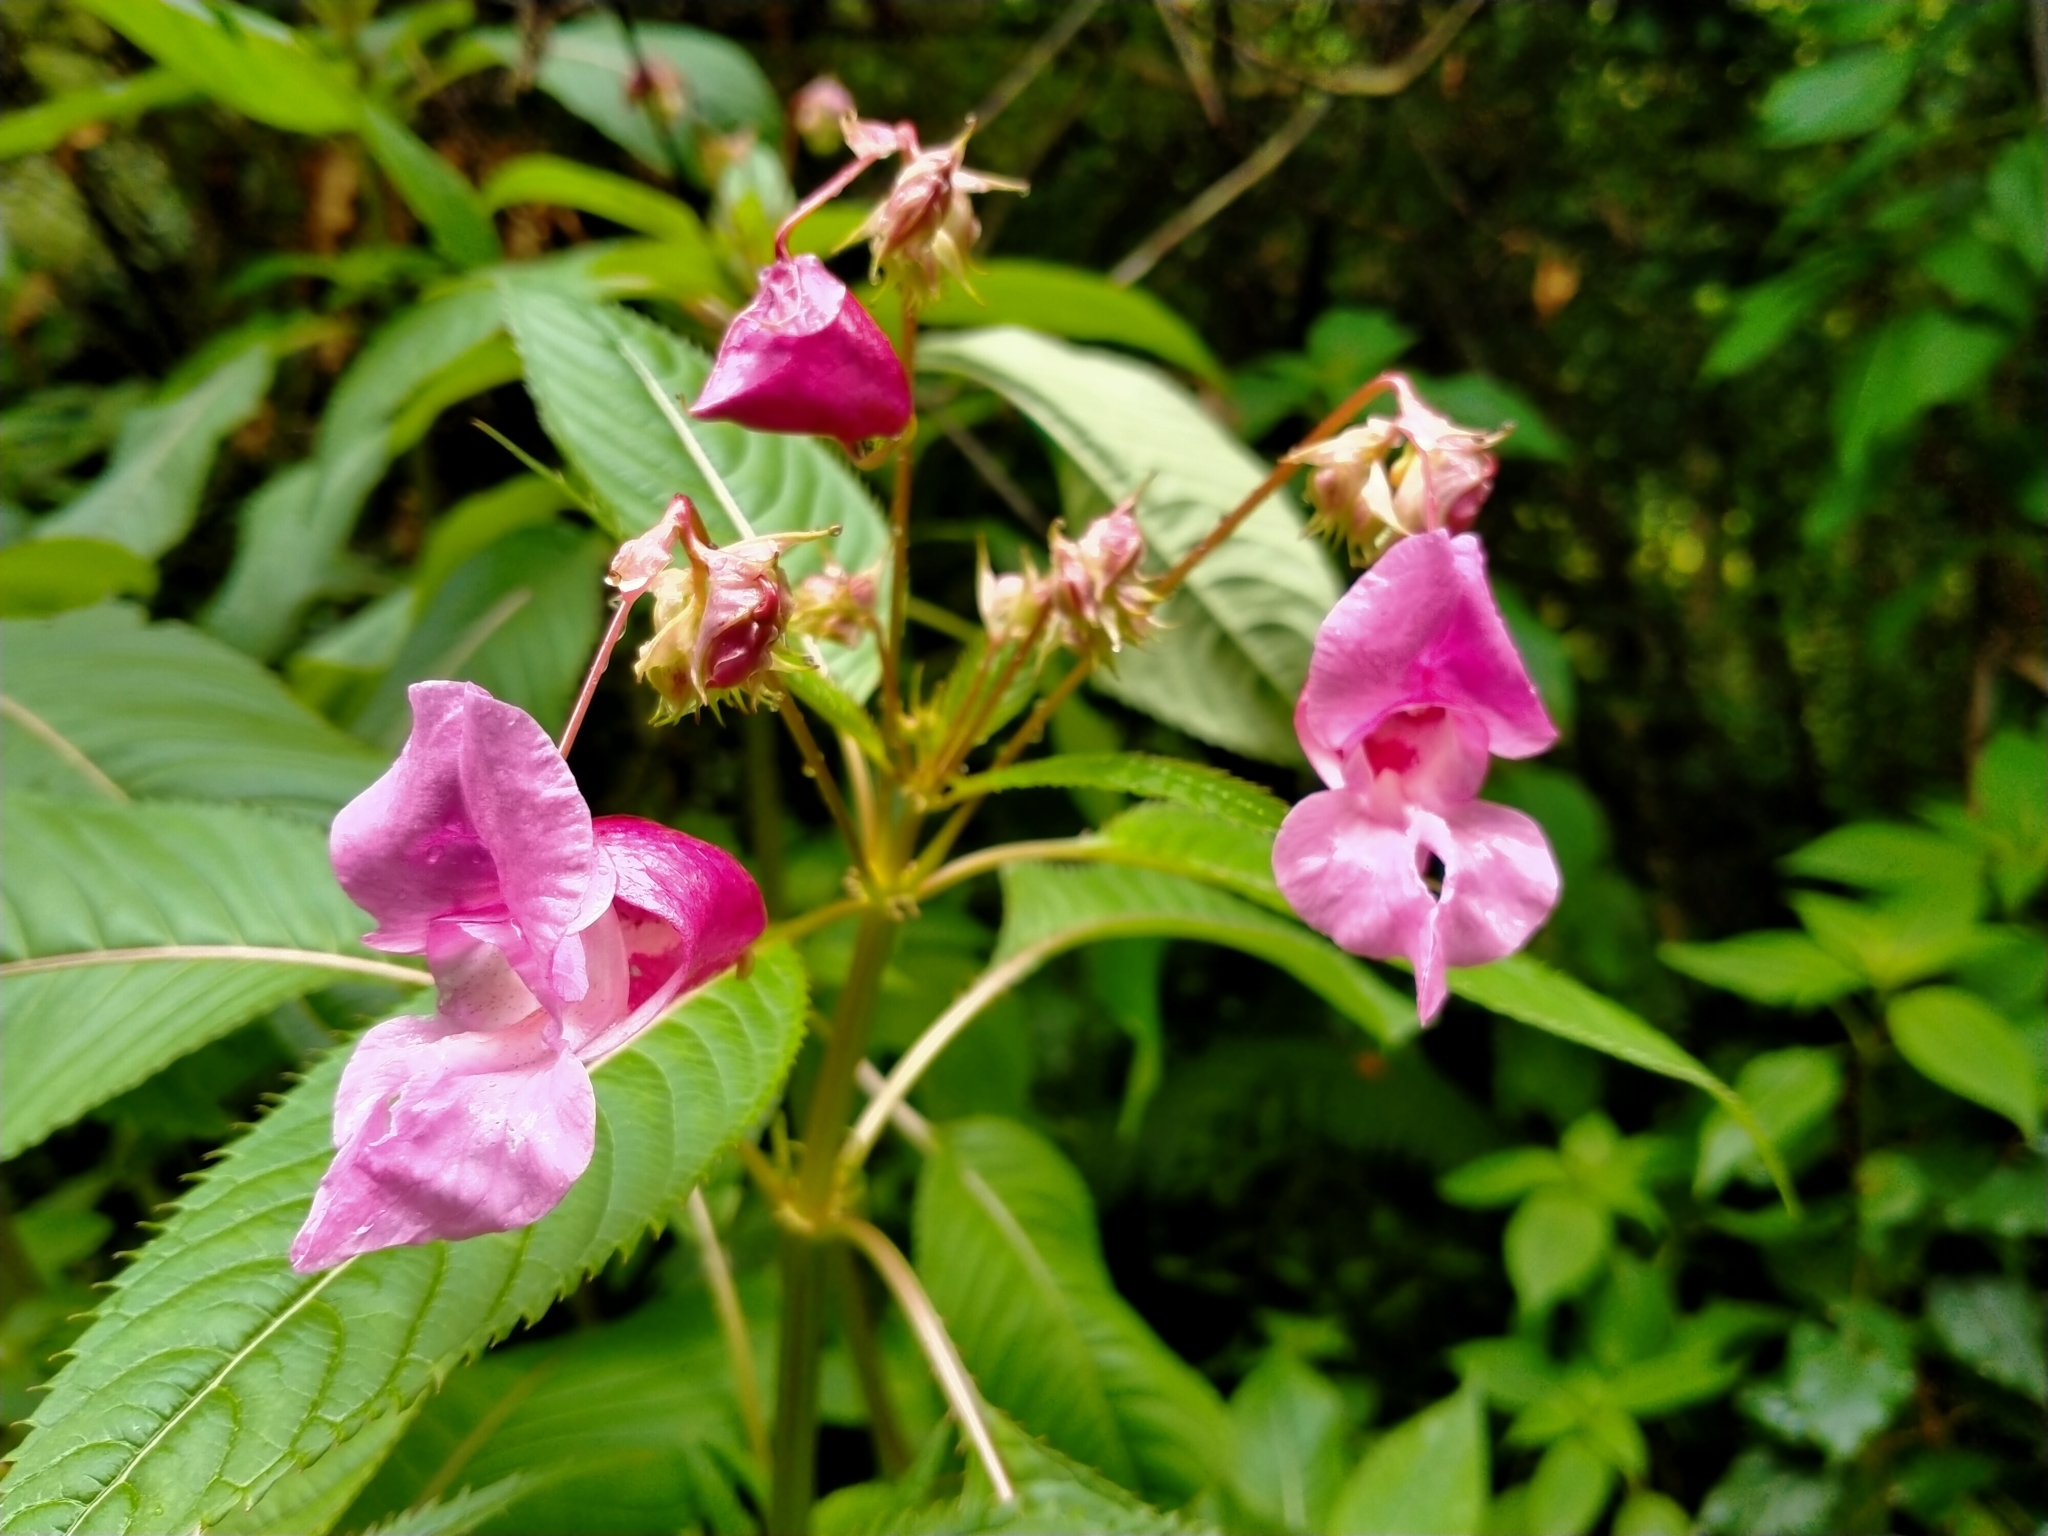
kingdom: Plantae
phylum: Tracheophyta
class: Magnoliopsida
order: Ericales
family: Balsaminaceae
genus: Impatiens
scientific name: Impatiens glandulifera
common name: Himalayan balsam
